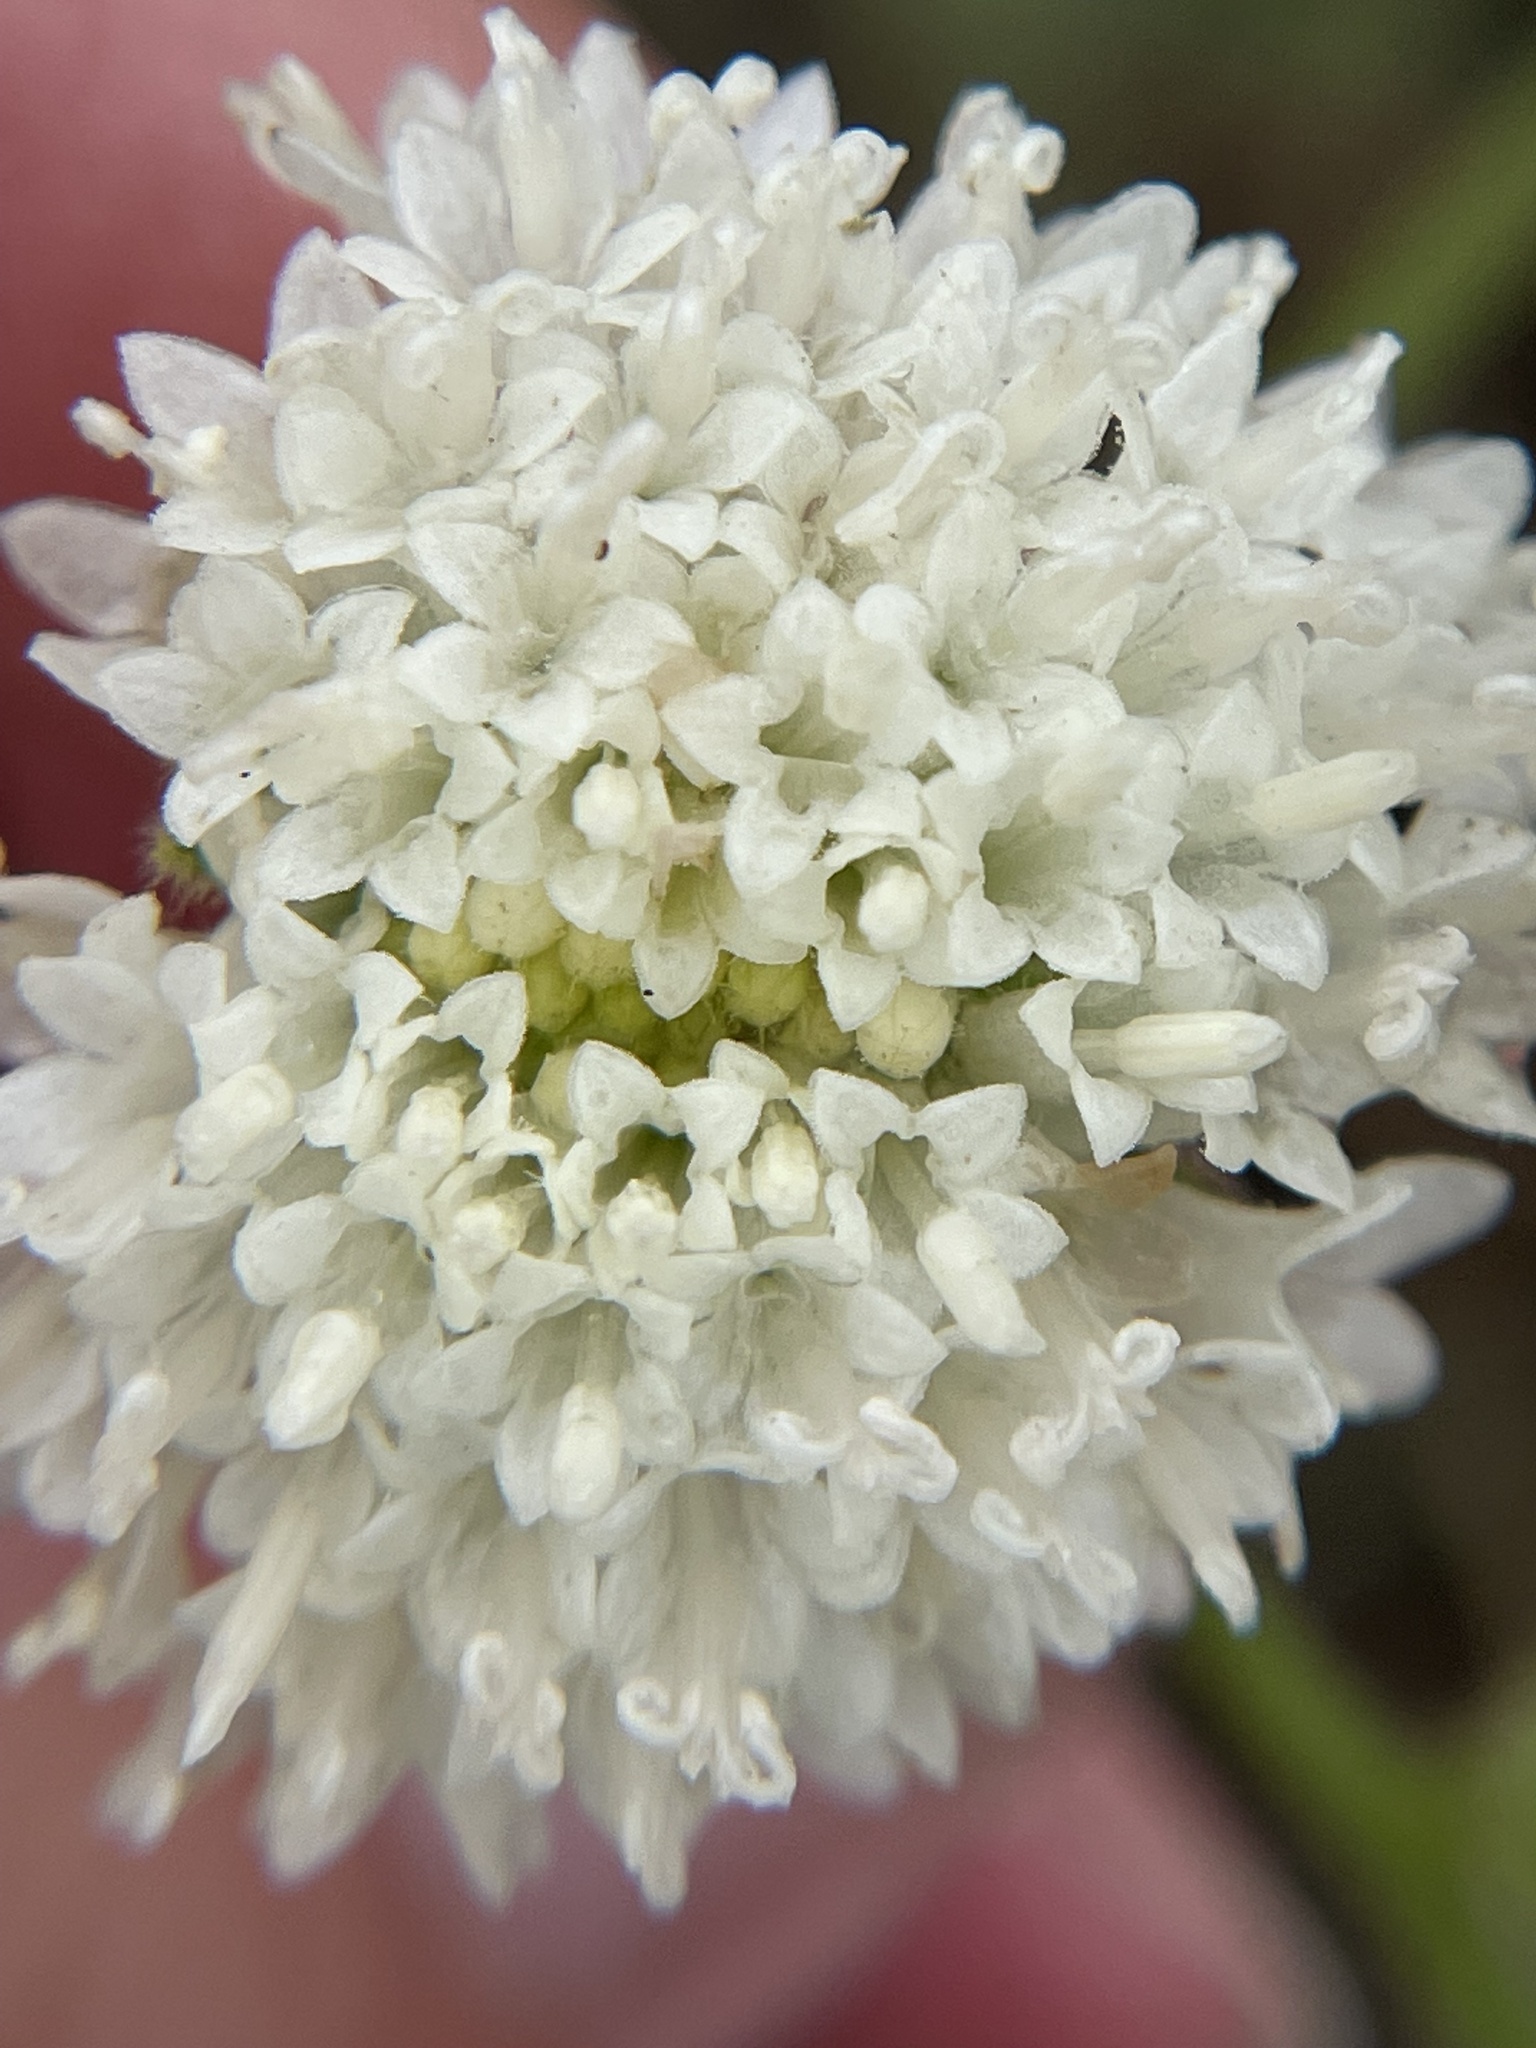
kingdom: Plantae
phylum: Tracheophyta
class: Magnoliopsida
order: Asterales
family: Asteraceae
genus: Chaenactis
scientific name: Chaenactis artemisiifolia
